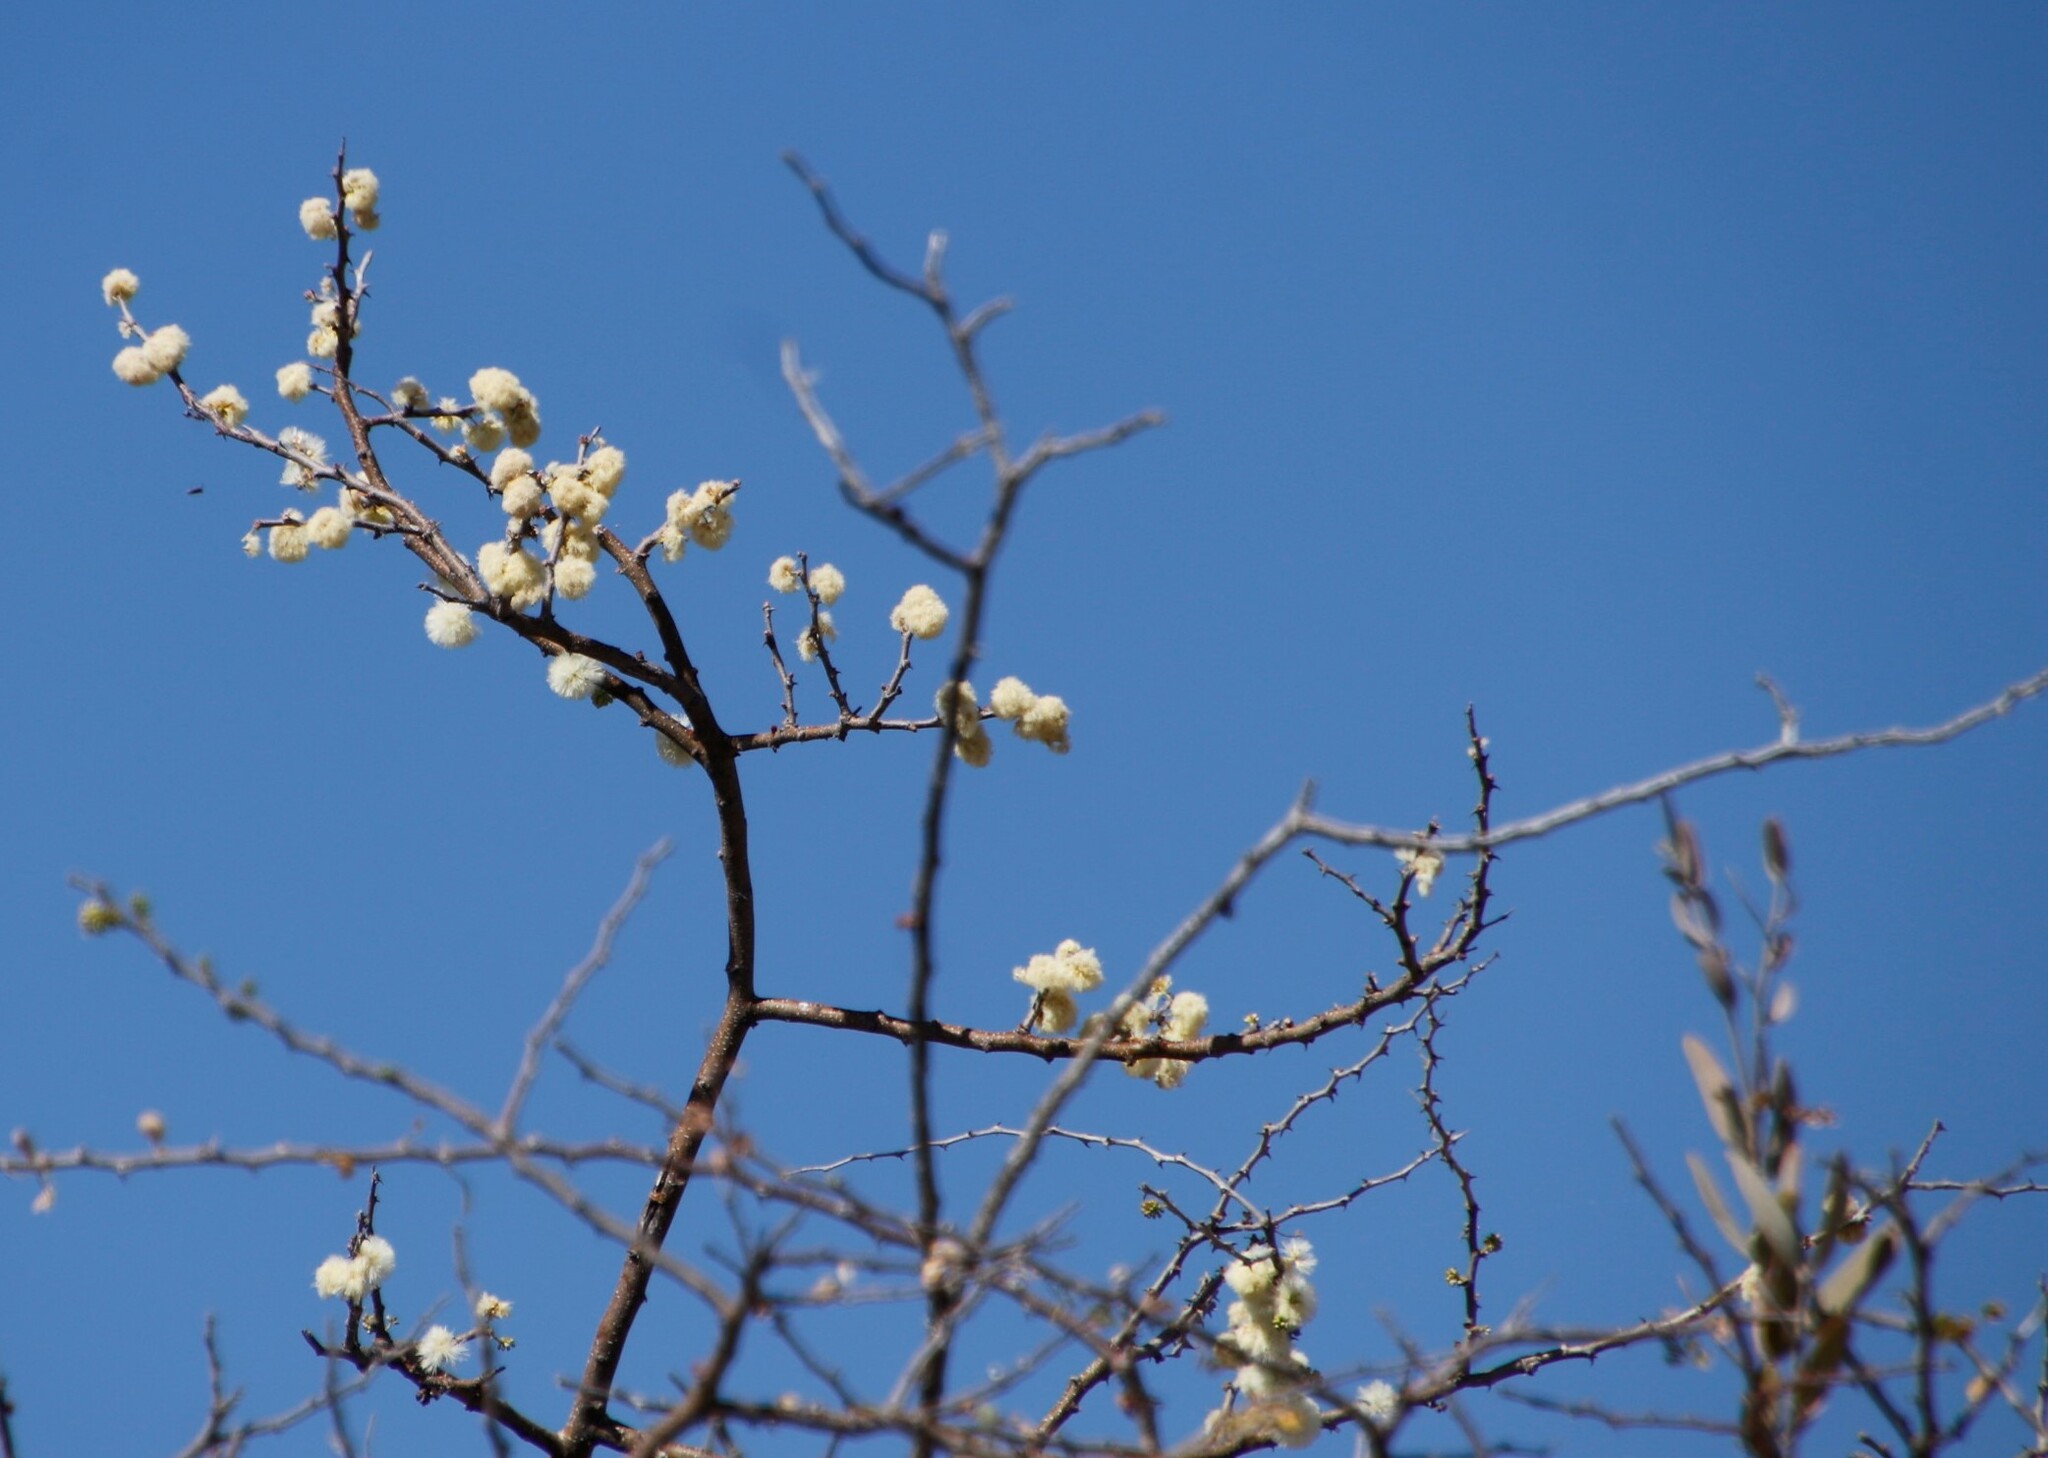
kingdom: Plantae
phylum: Tracheophyta
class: Magnoliopsida
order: Fabales
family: Fabaceae
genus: Senegalia
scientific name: Senegalia mellifera
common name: Hookthorn
